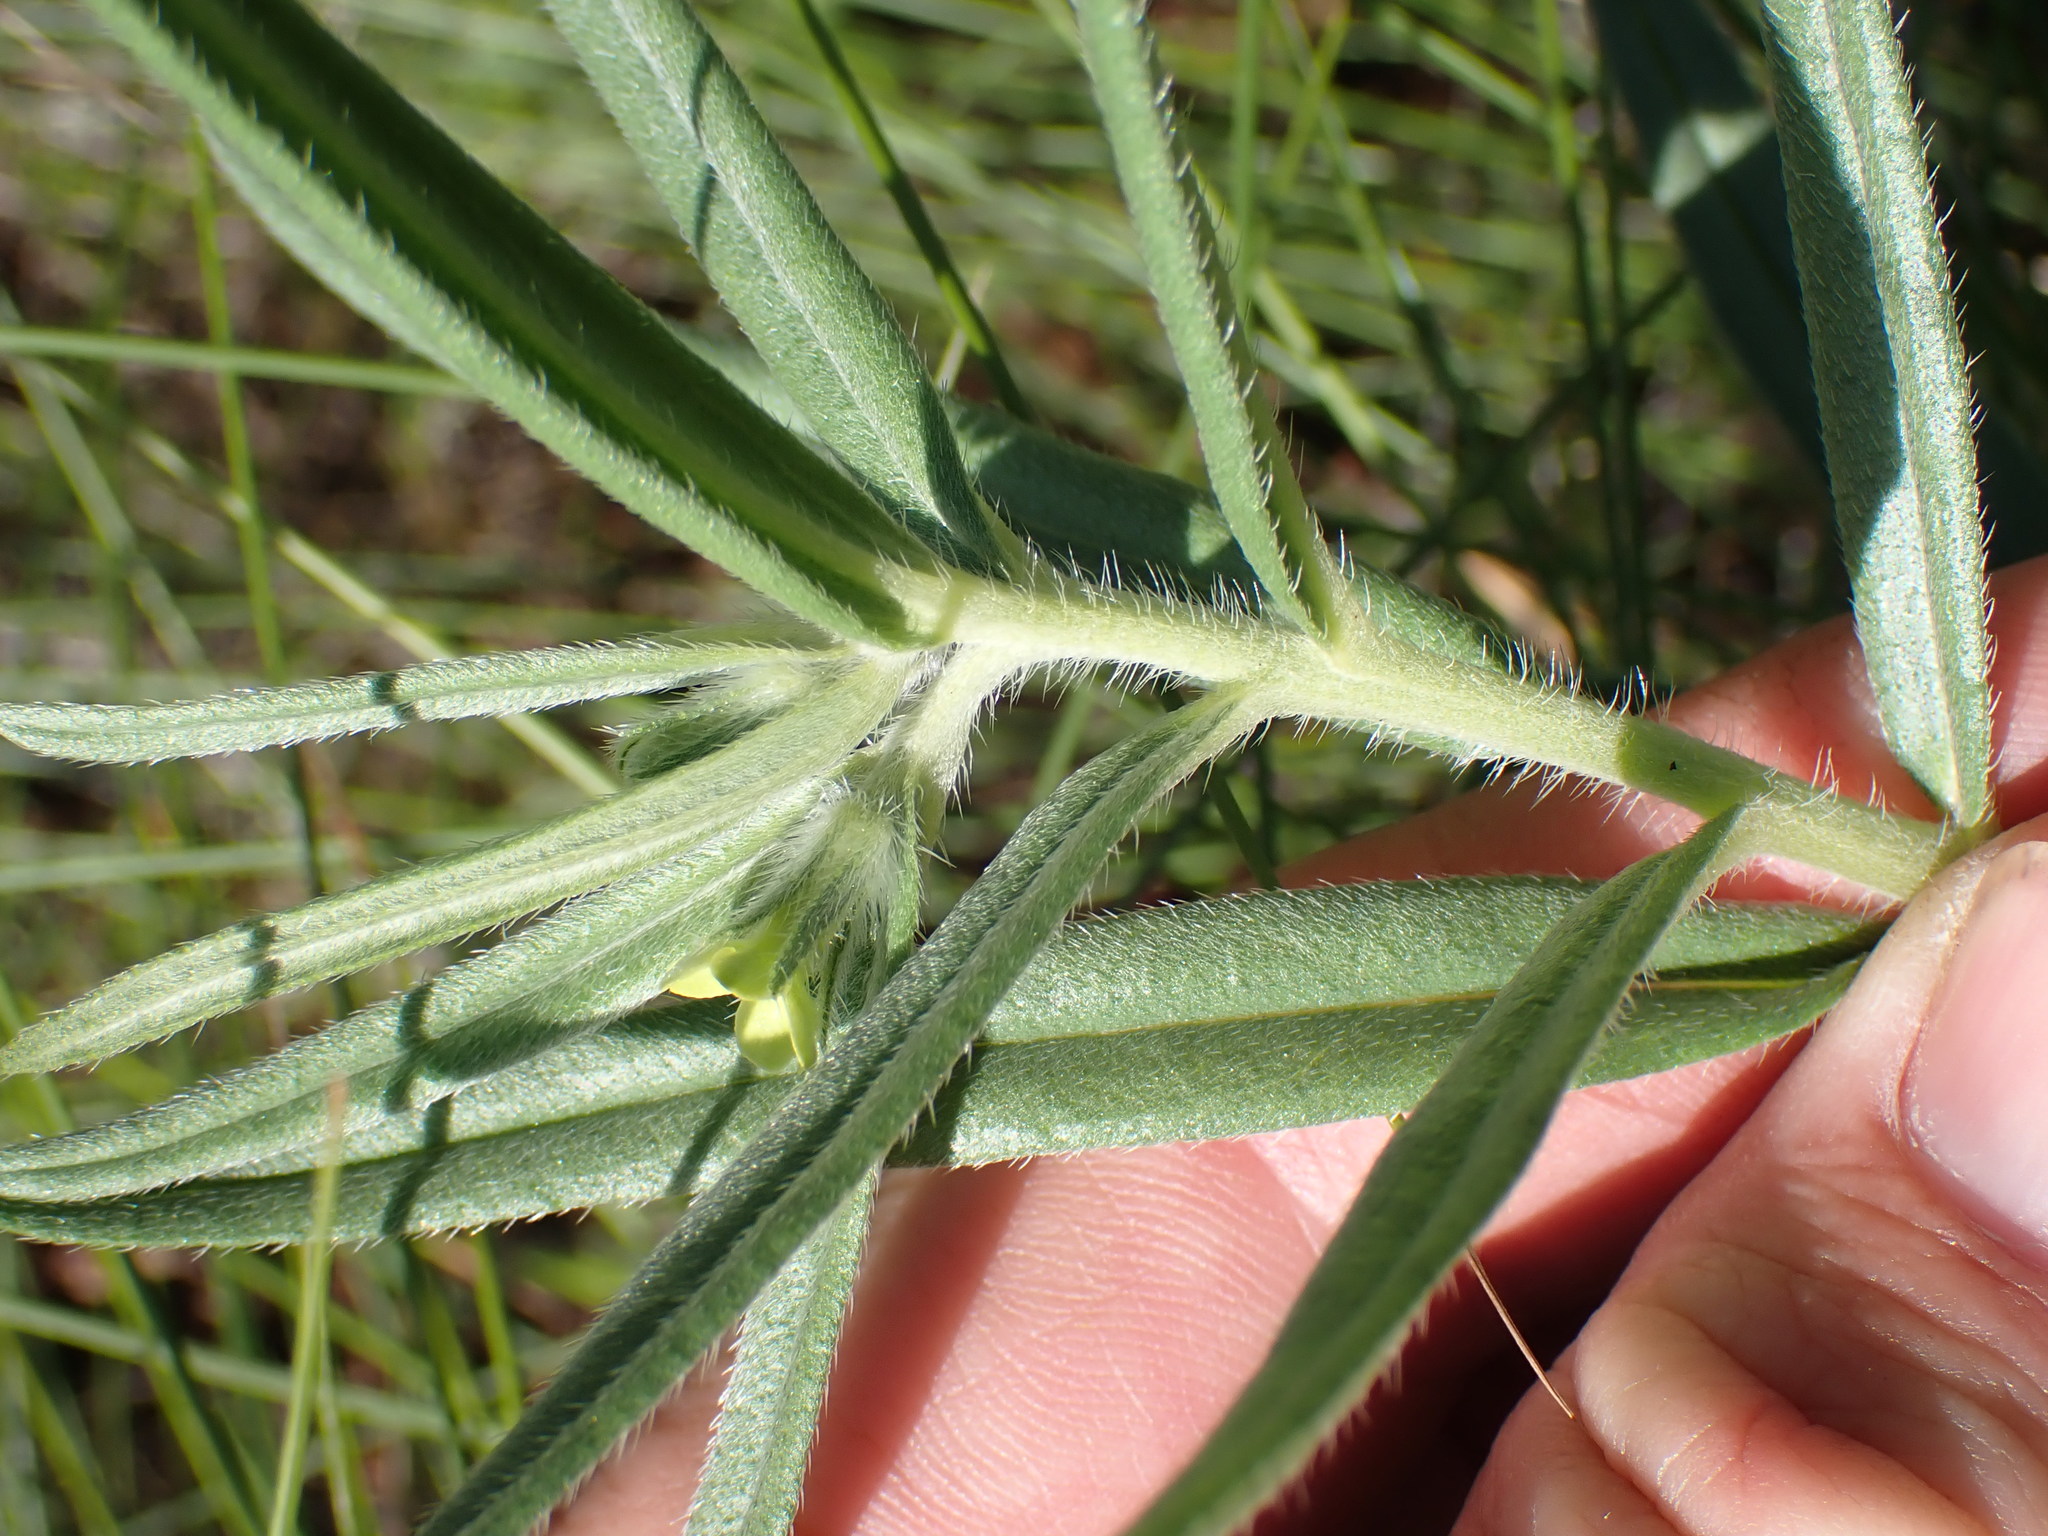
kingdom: Plantae
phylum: Tracheophyta
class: Magnoliopsida
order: Boraginales
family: Boraginaceae
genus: Lithospermum
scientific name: Lithospermum ruderale
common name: Western gromwell
